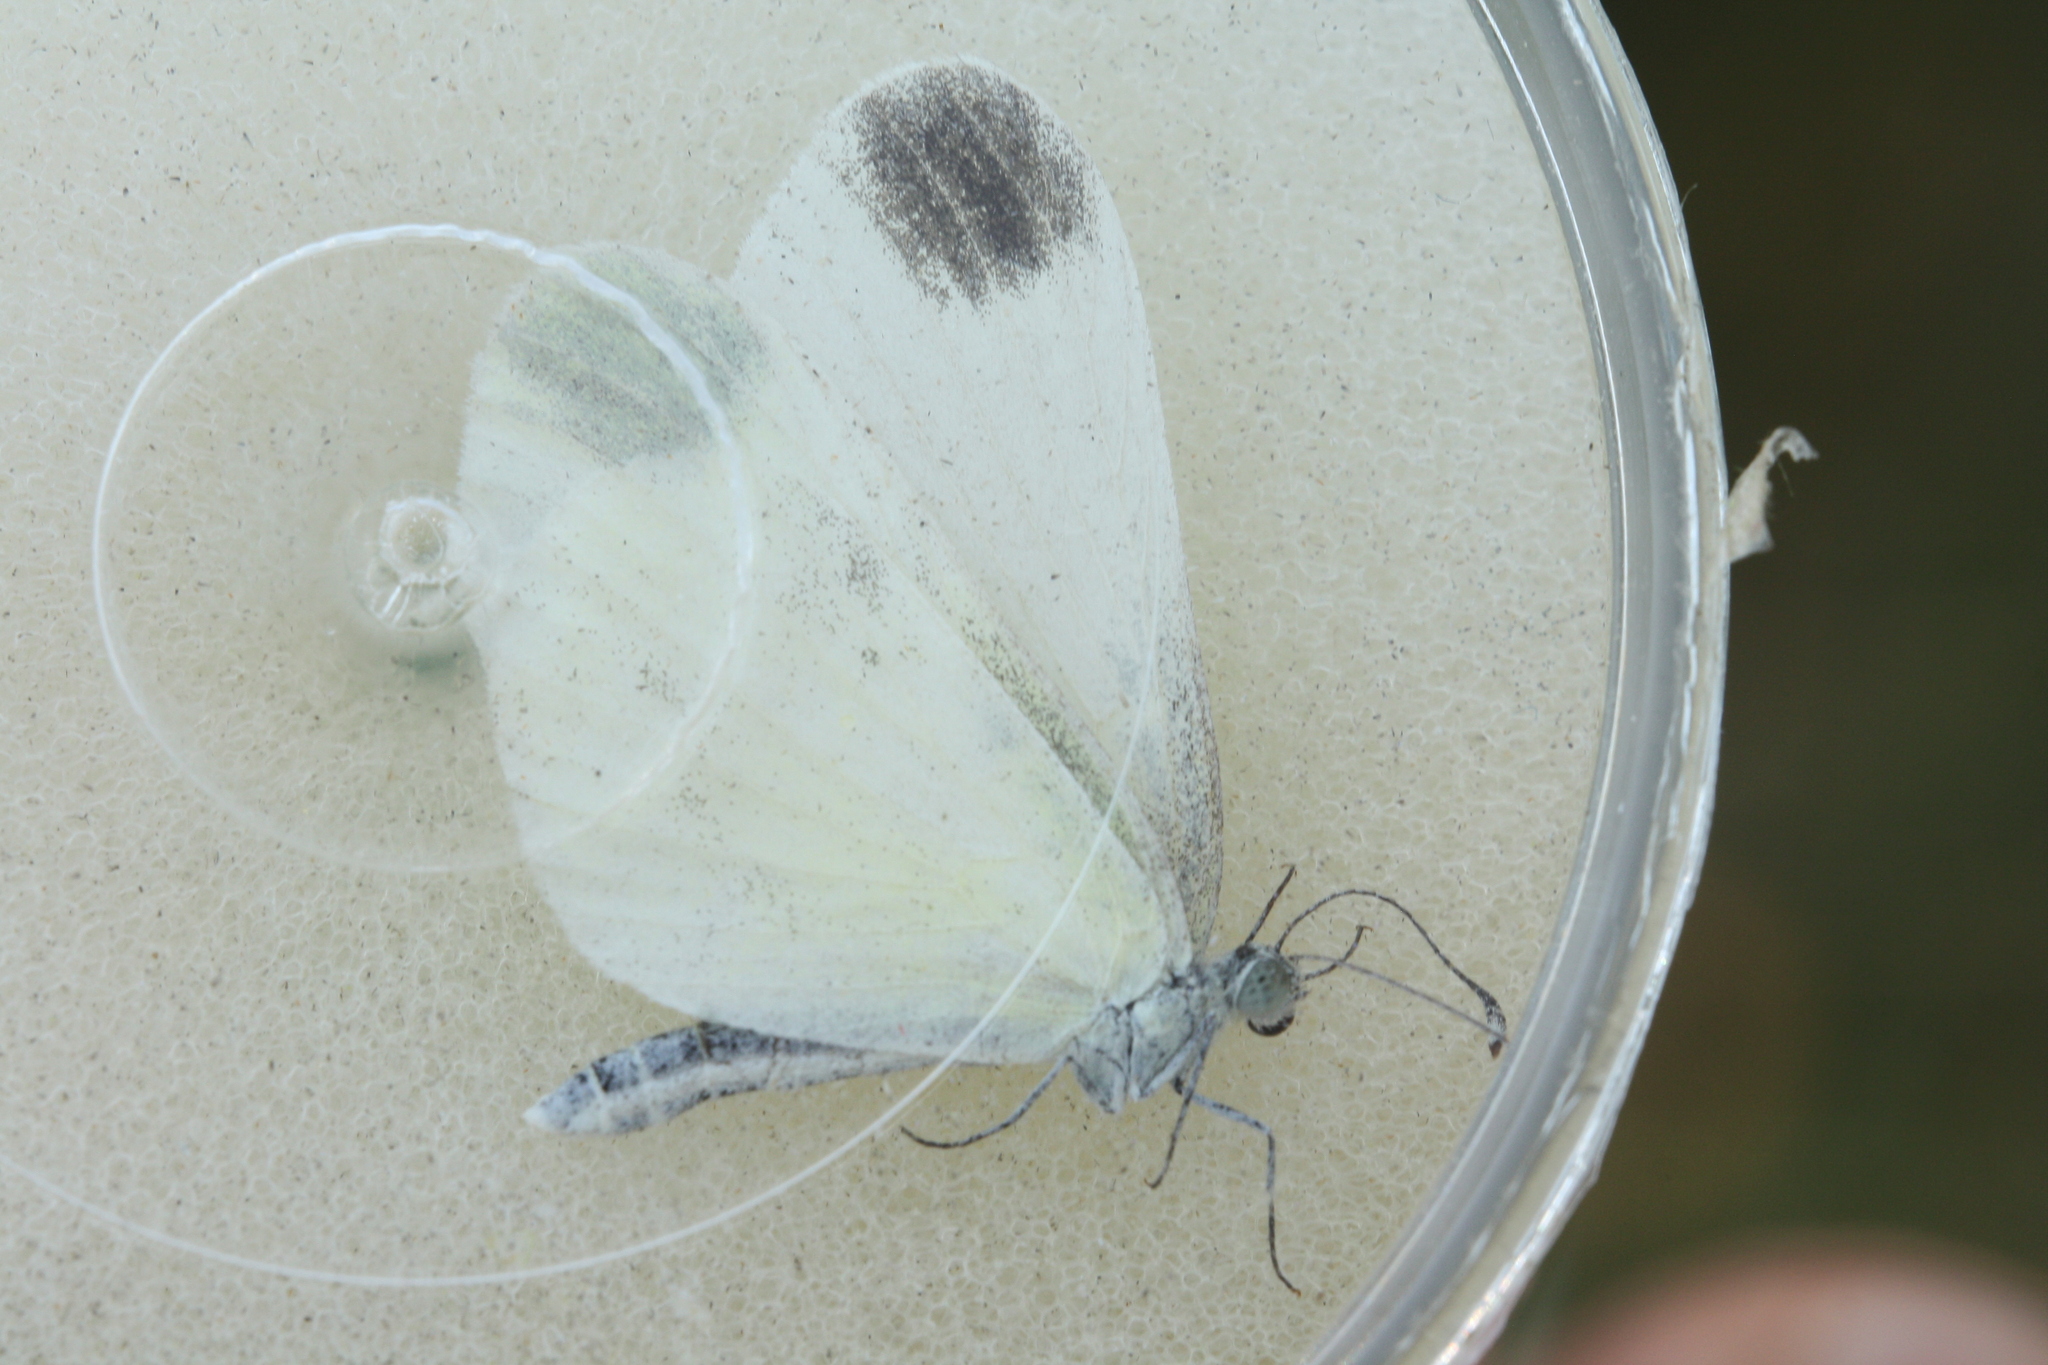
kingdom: Animalia
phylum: Arthropoda
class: Insecta
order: Lepidoptera
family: Pieridae
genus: Leptidea
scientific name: Leptidea
